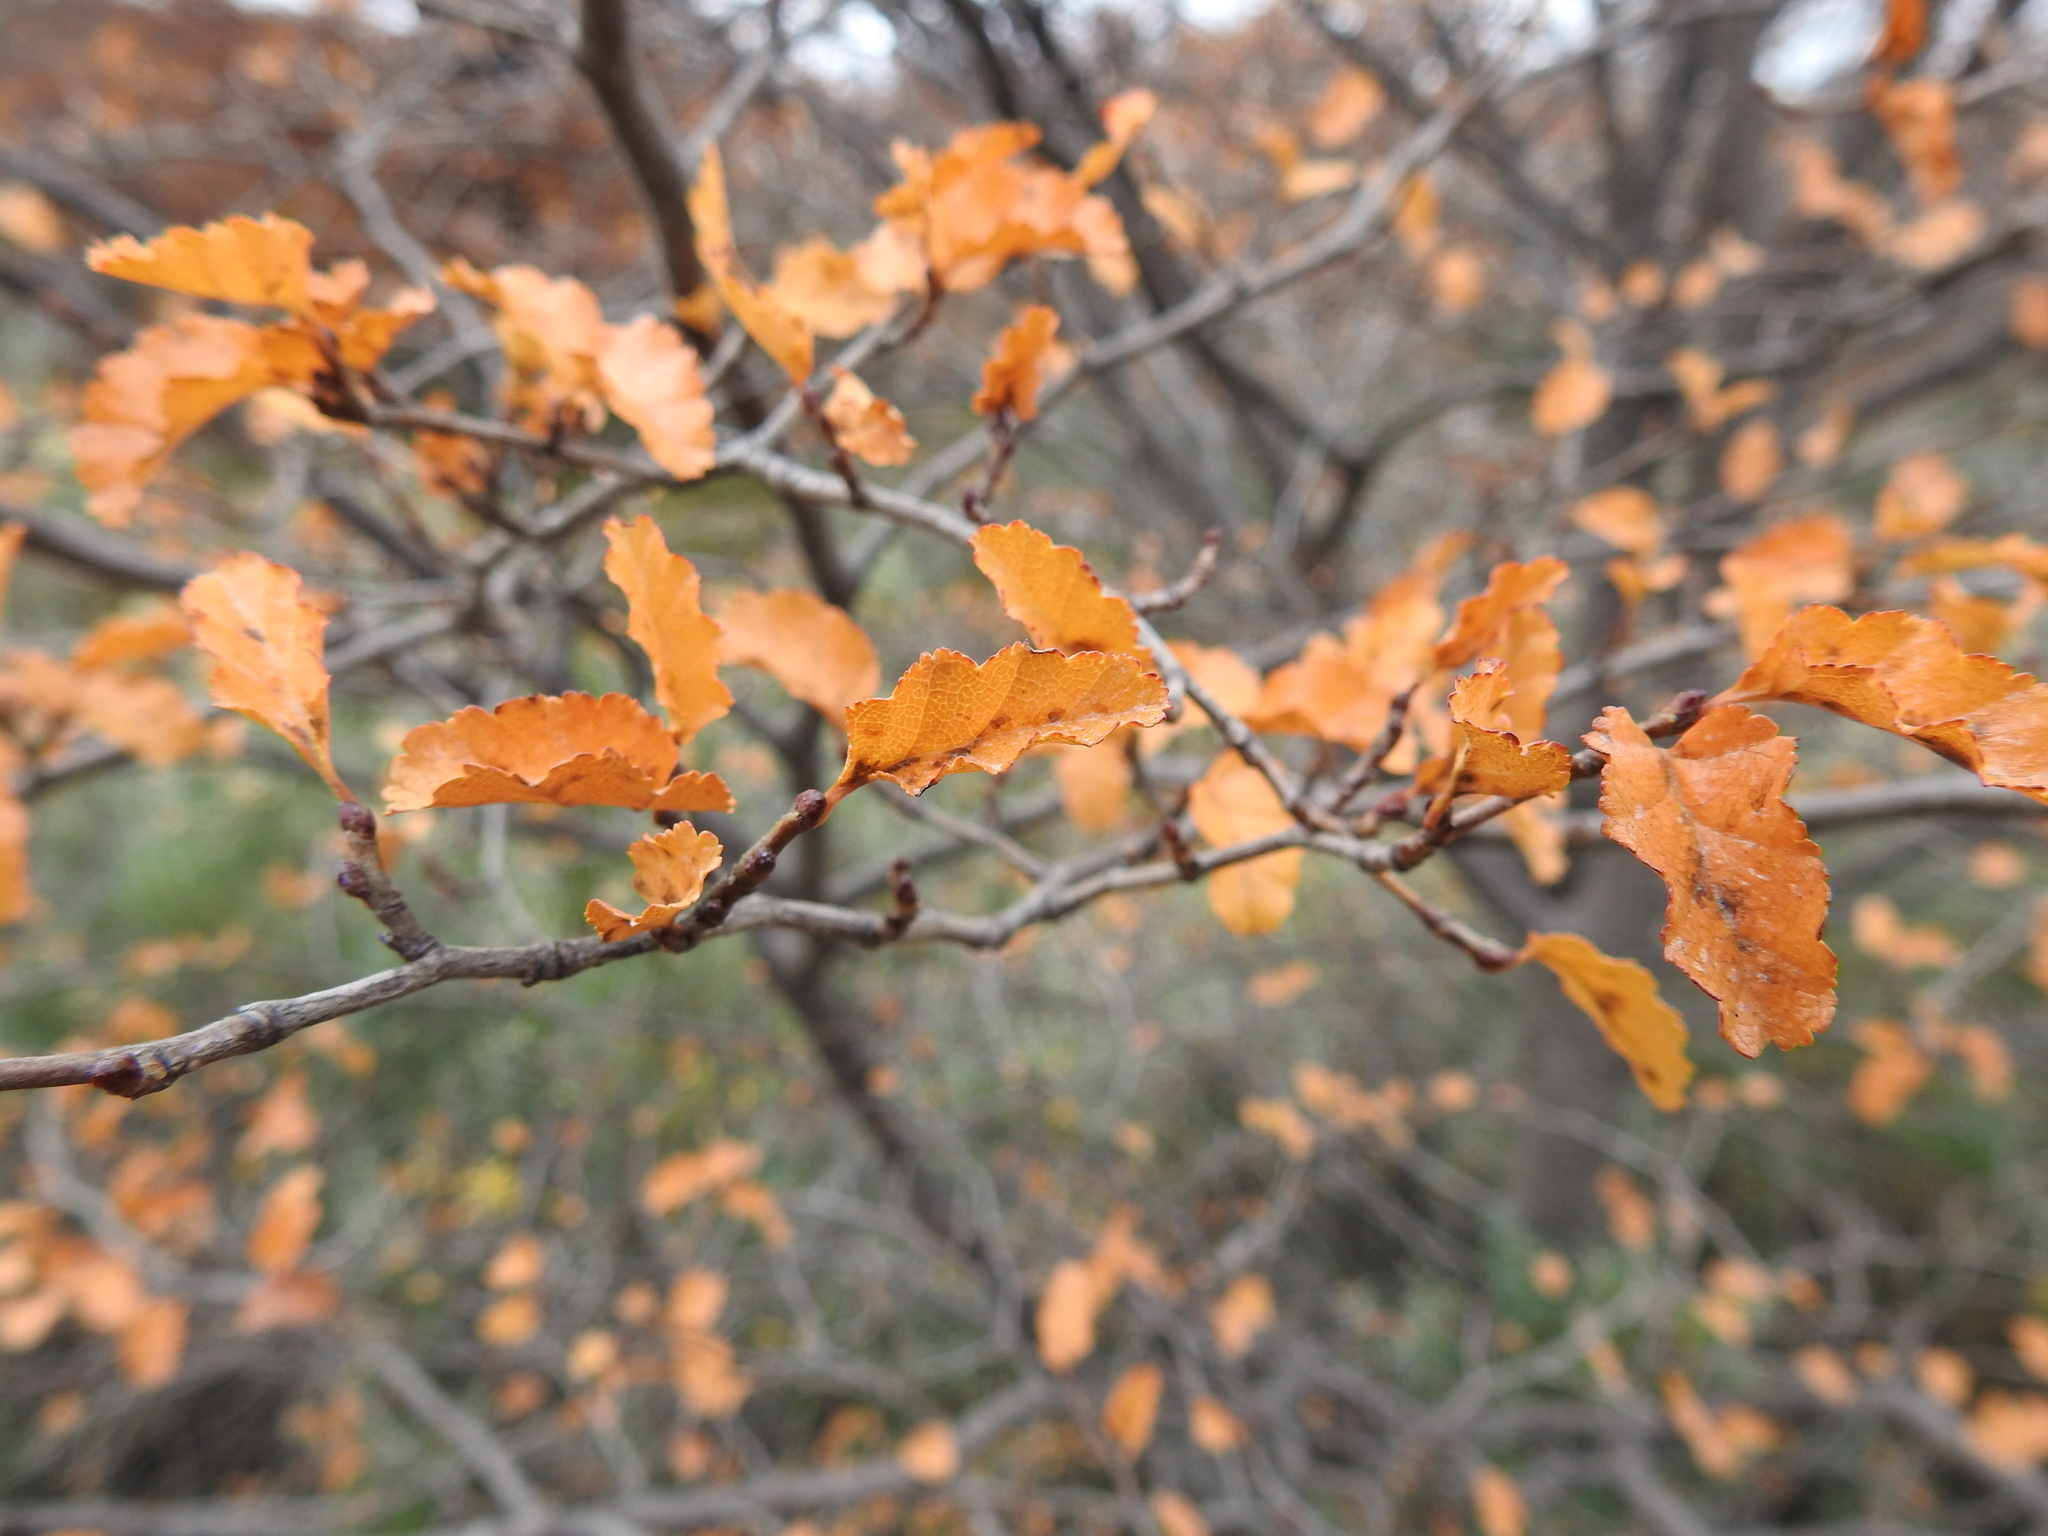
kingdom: Plantae
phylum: Tracheophyta
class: Magnoliopsida
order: Fagales
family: Nothofagaceae
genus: Nothofagus
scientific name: Nothofagus antarctica
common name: Antarctic beech
